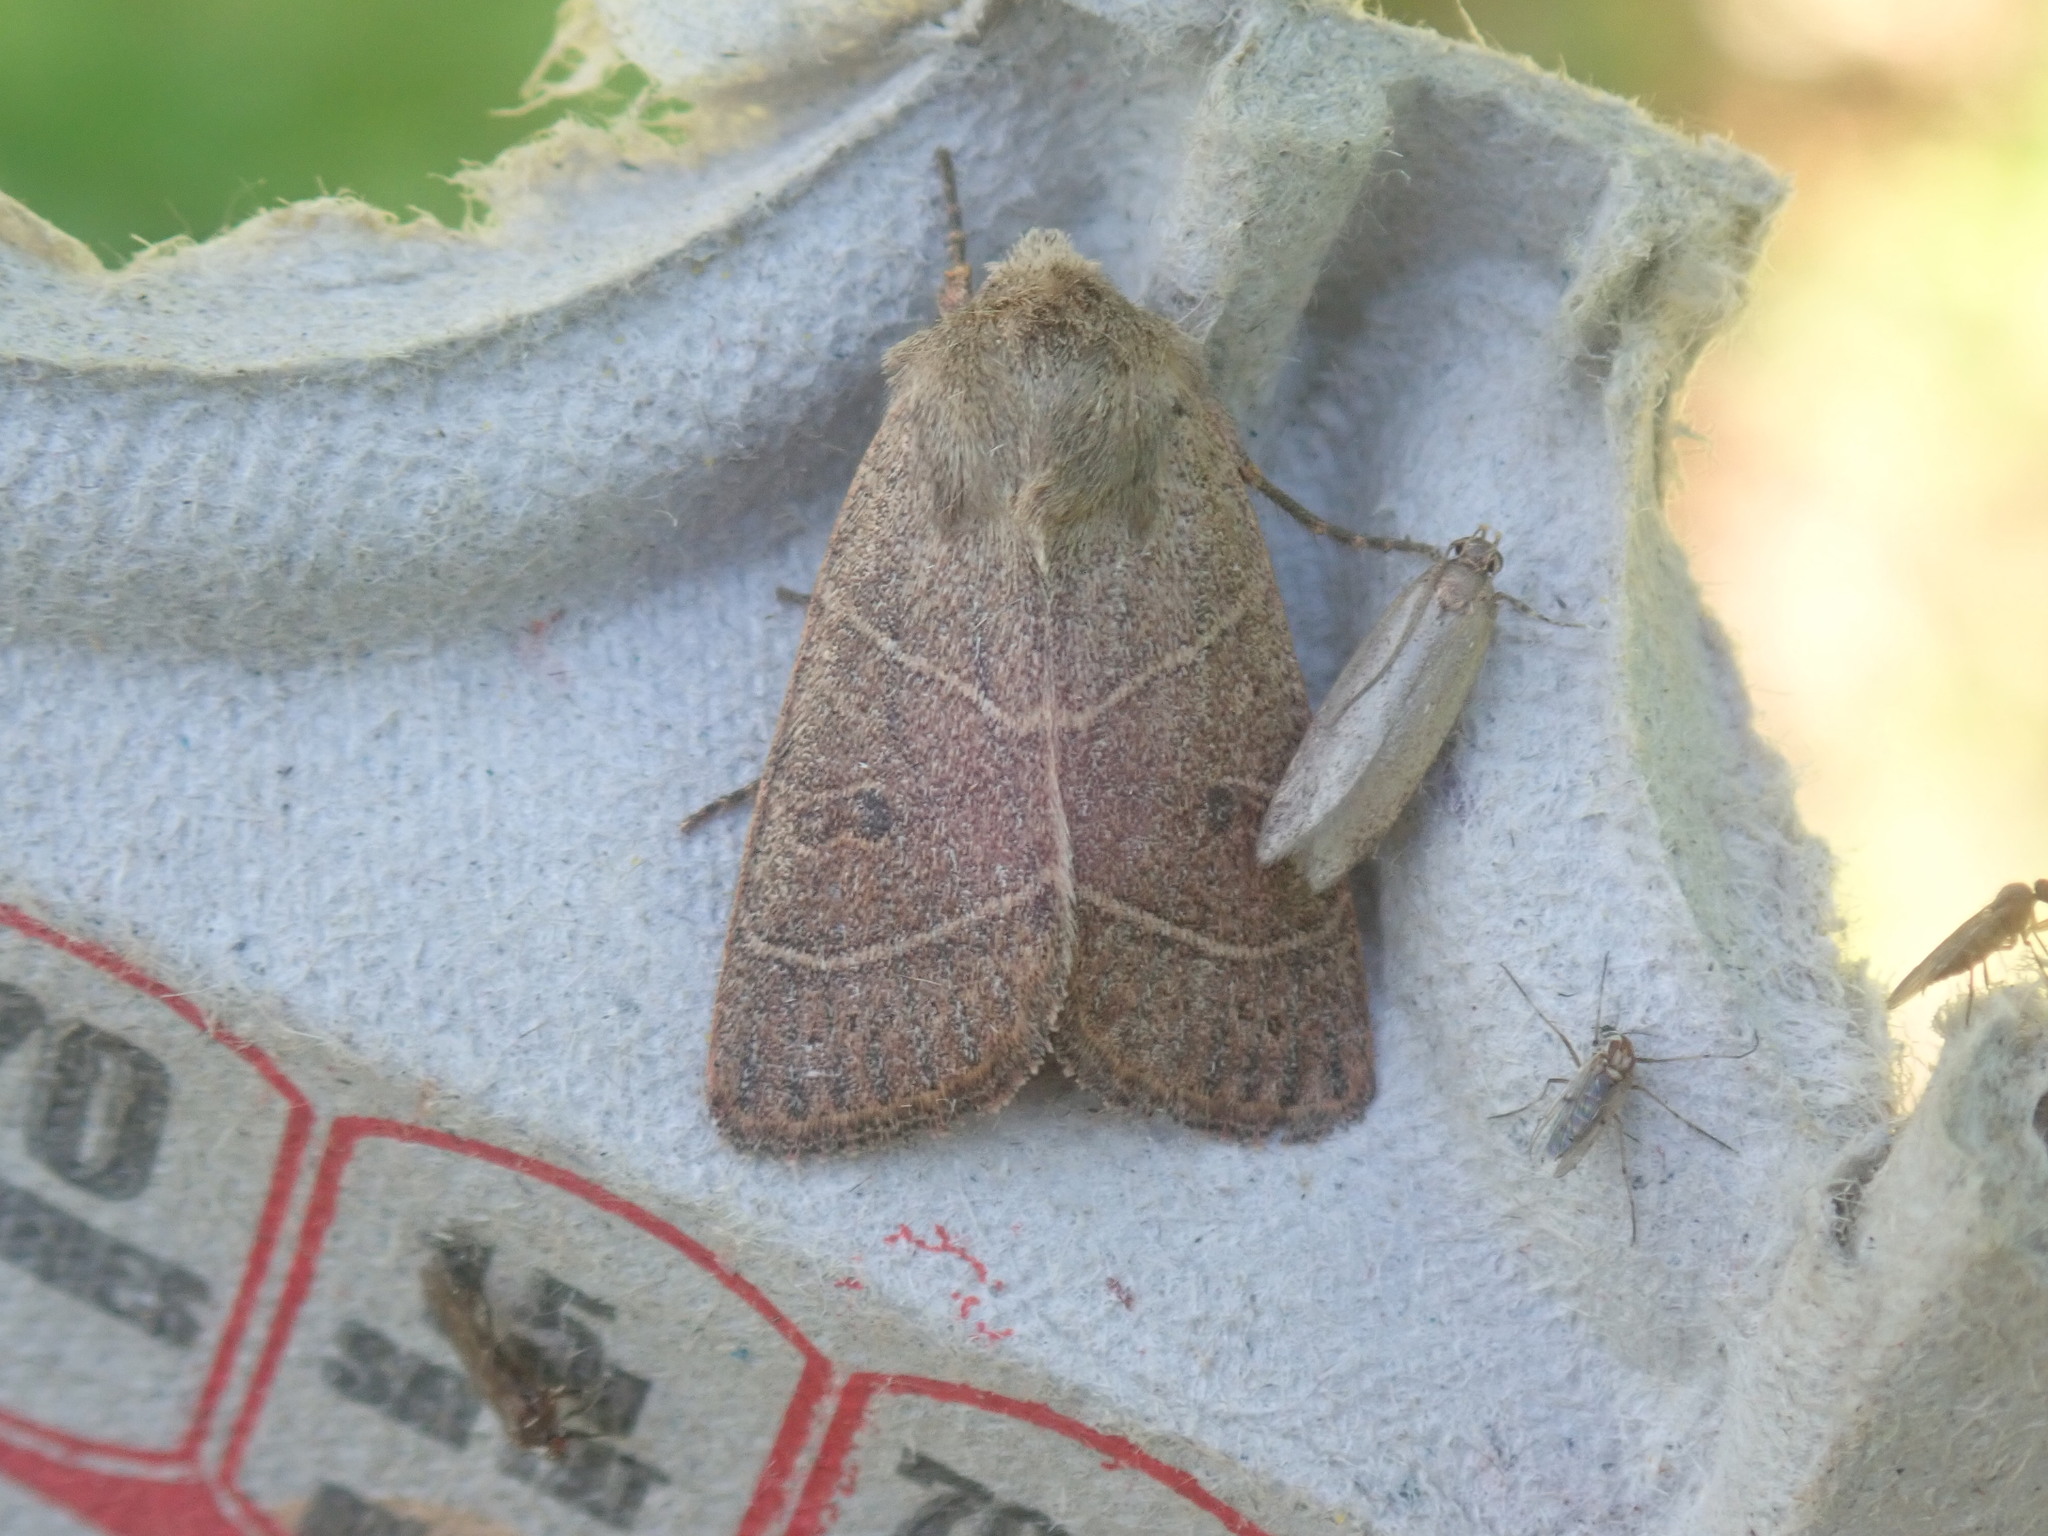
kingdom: Animalia
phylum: Arthropoda
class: Insecta
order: Lepidoptera
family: Noctuidae
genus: Ulolonche
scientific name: Ulolonche culea
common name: Sheathed quaker
